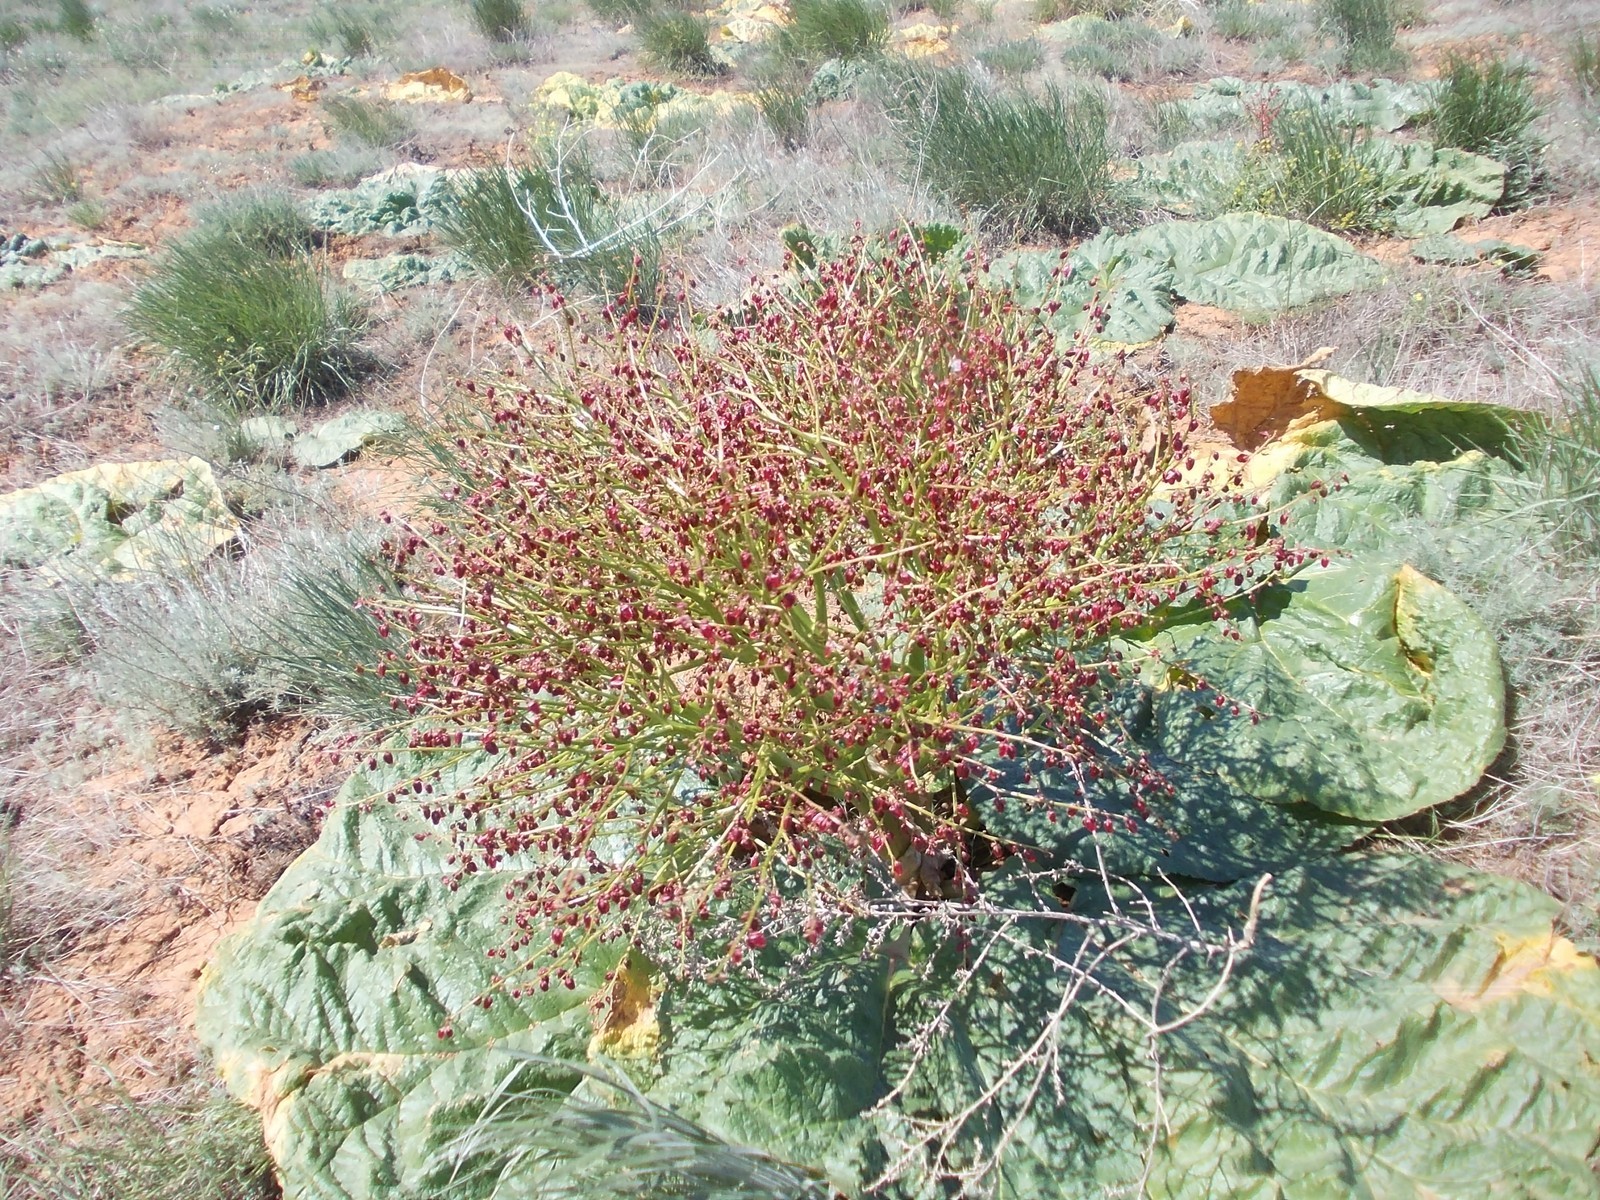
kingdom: Plantae
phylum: Tracheophyta
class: Magnoliopsida
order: Caryophyllales
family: Polygonaceae
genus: Rheum
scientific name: Rheum tataricum
